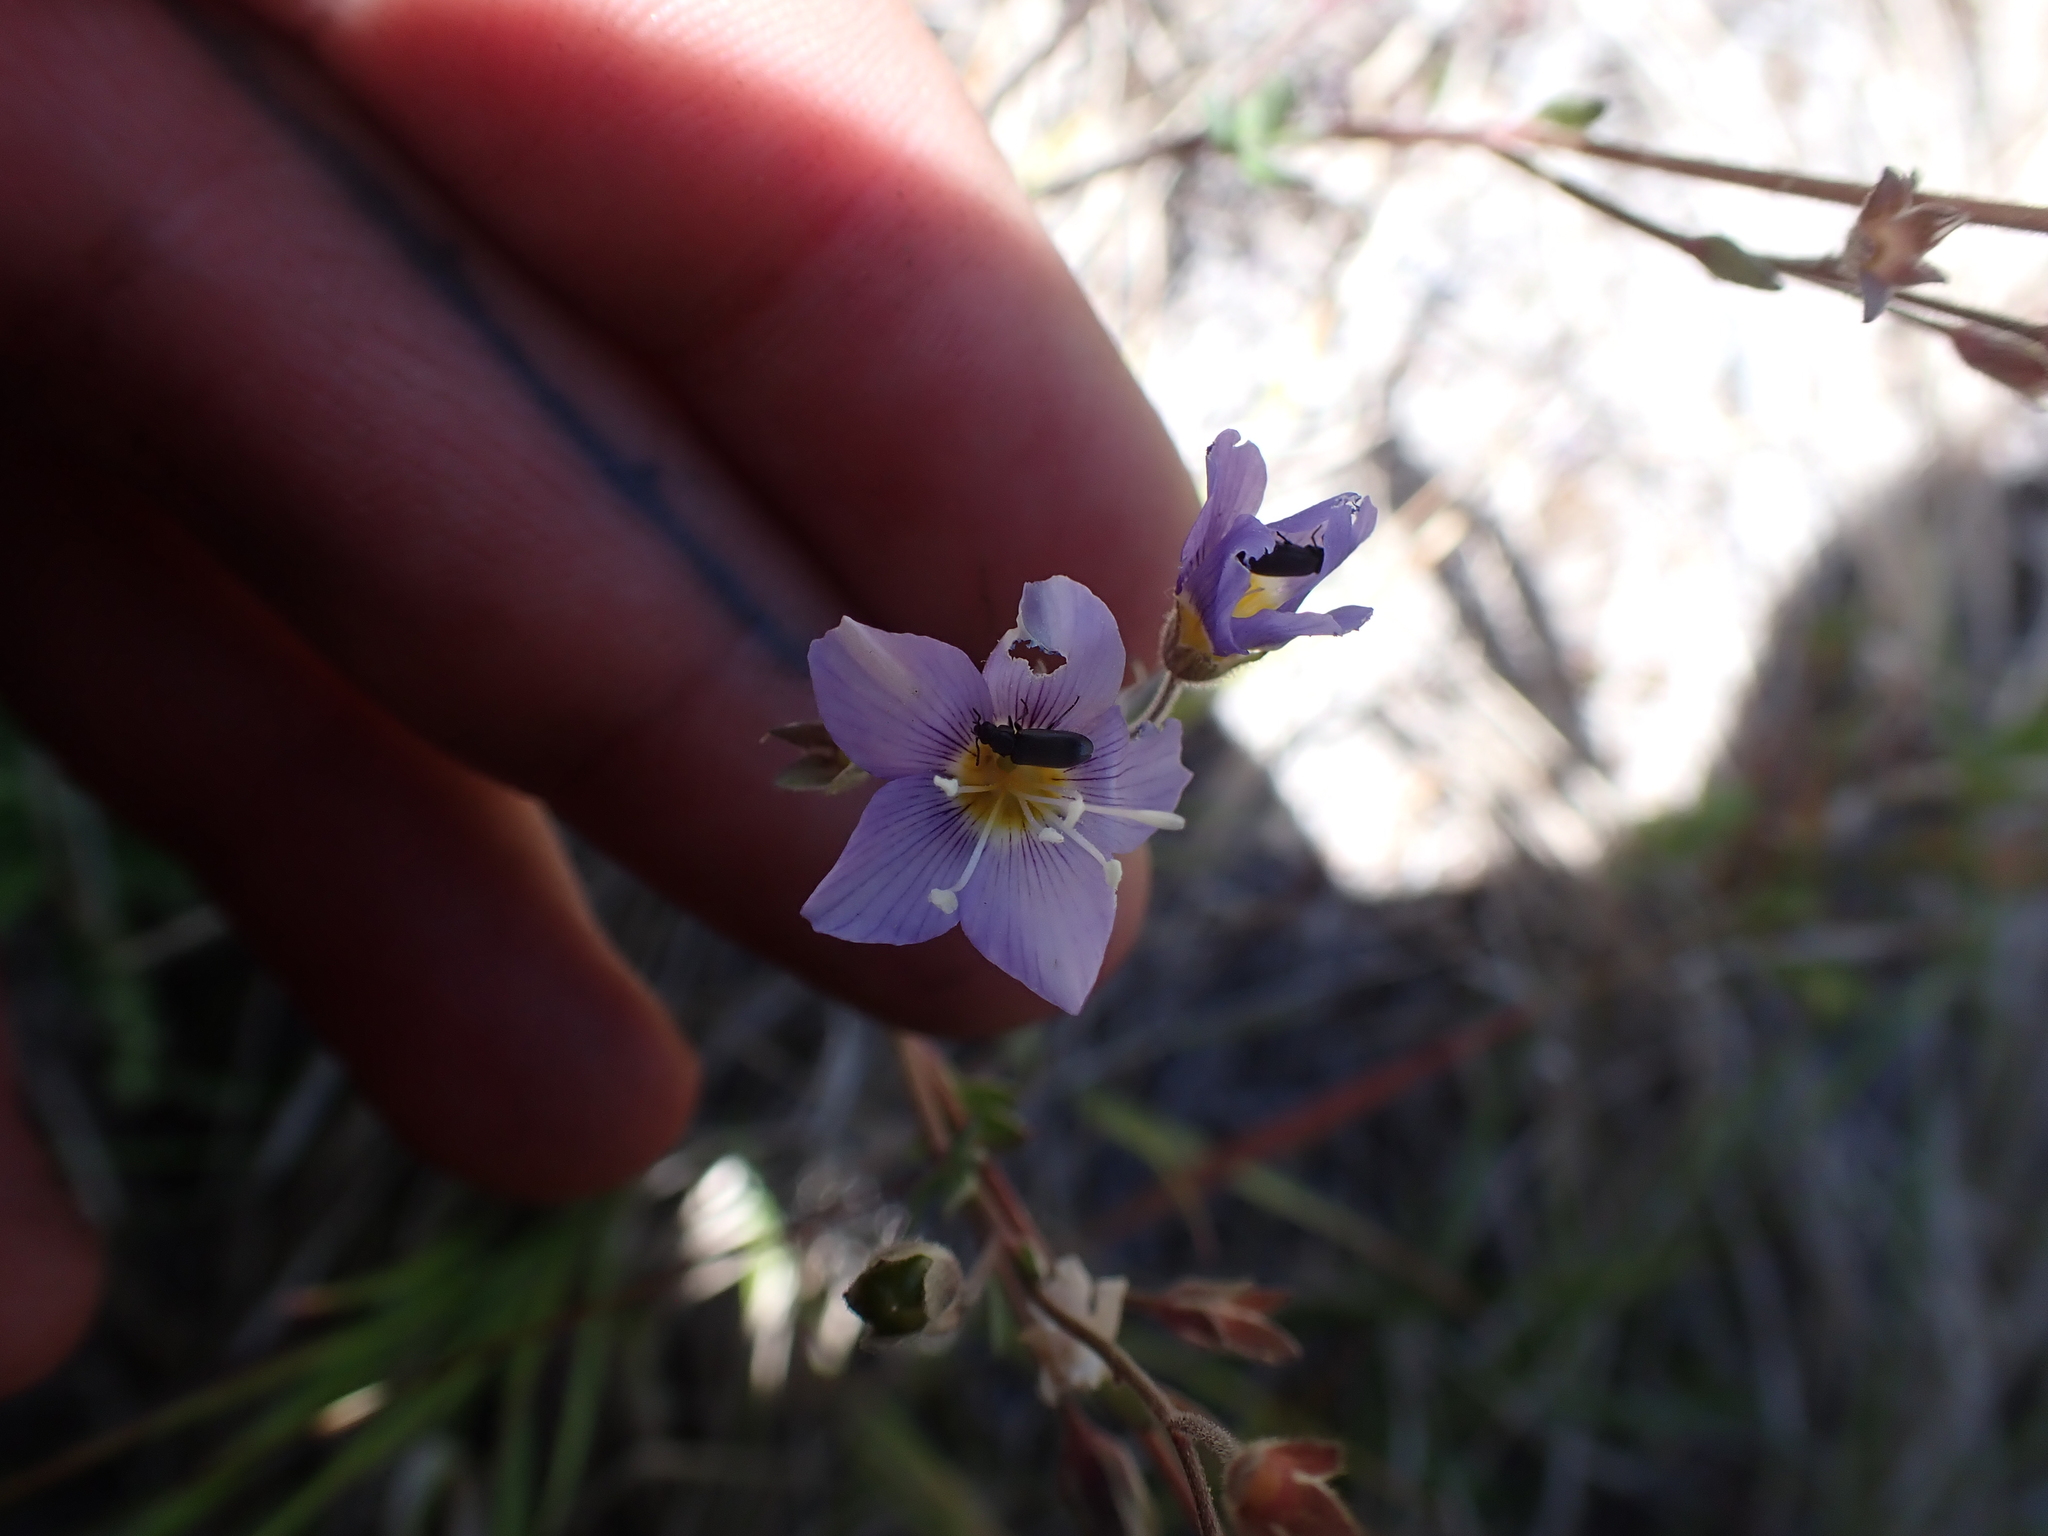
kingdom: Plantae
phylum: Tracheophyta
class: Magnoliopsida
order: Ericales
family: Polemoniaceae
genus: Polemonium
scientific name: Polemonium pulcherrimum
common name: Short jacob's-ladder
